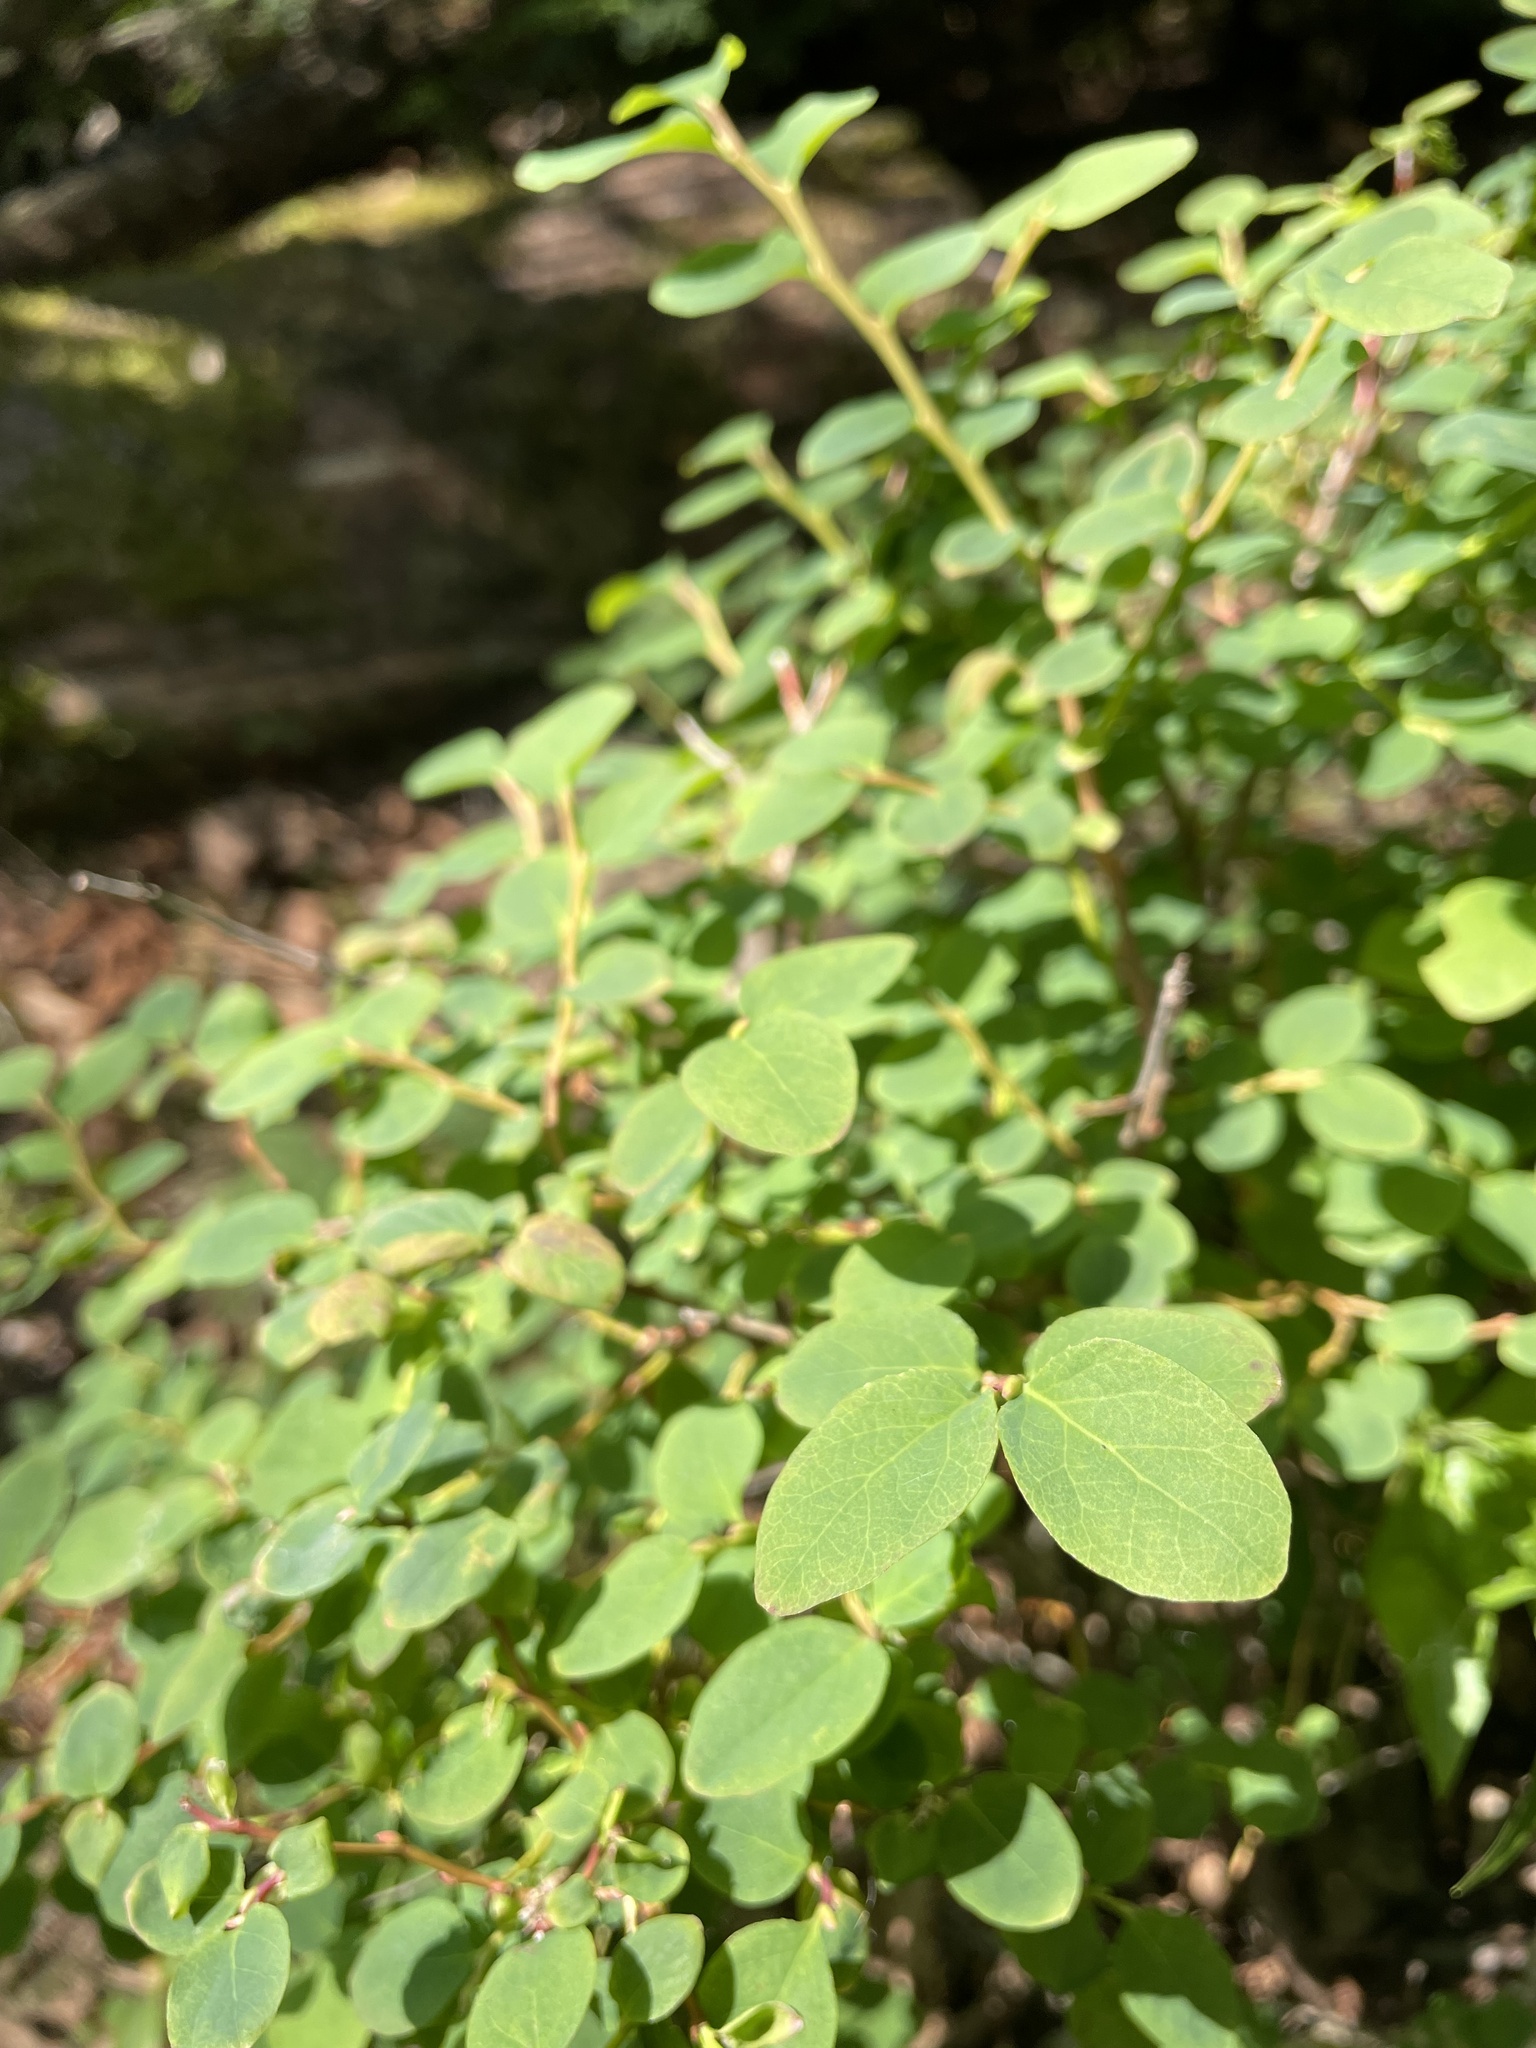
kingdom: Plantae
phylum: Tracheophyta
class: Magnoliopsida
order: Ericales
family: Ericaceae
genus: Vaccinium
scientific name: Vaccinium ovalifolium
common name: Early blueberry
